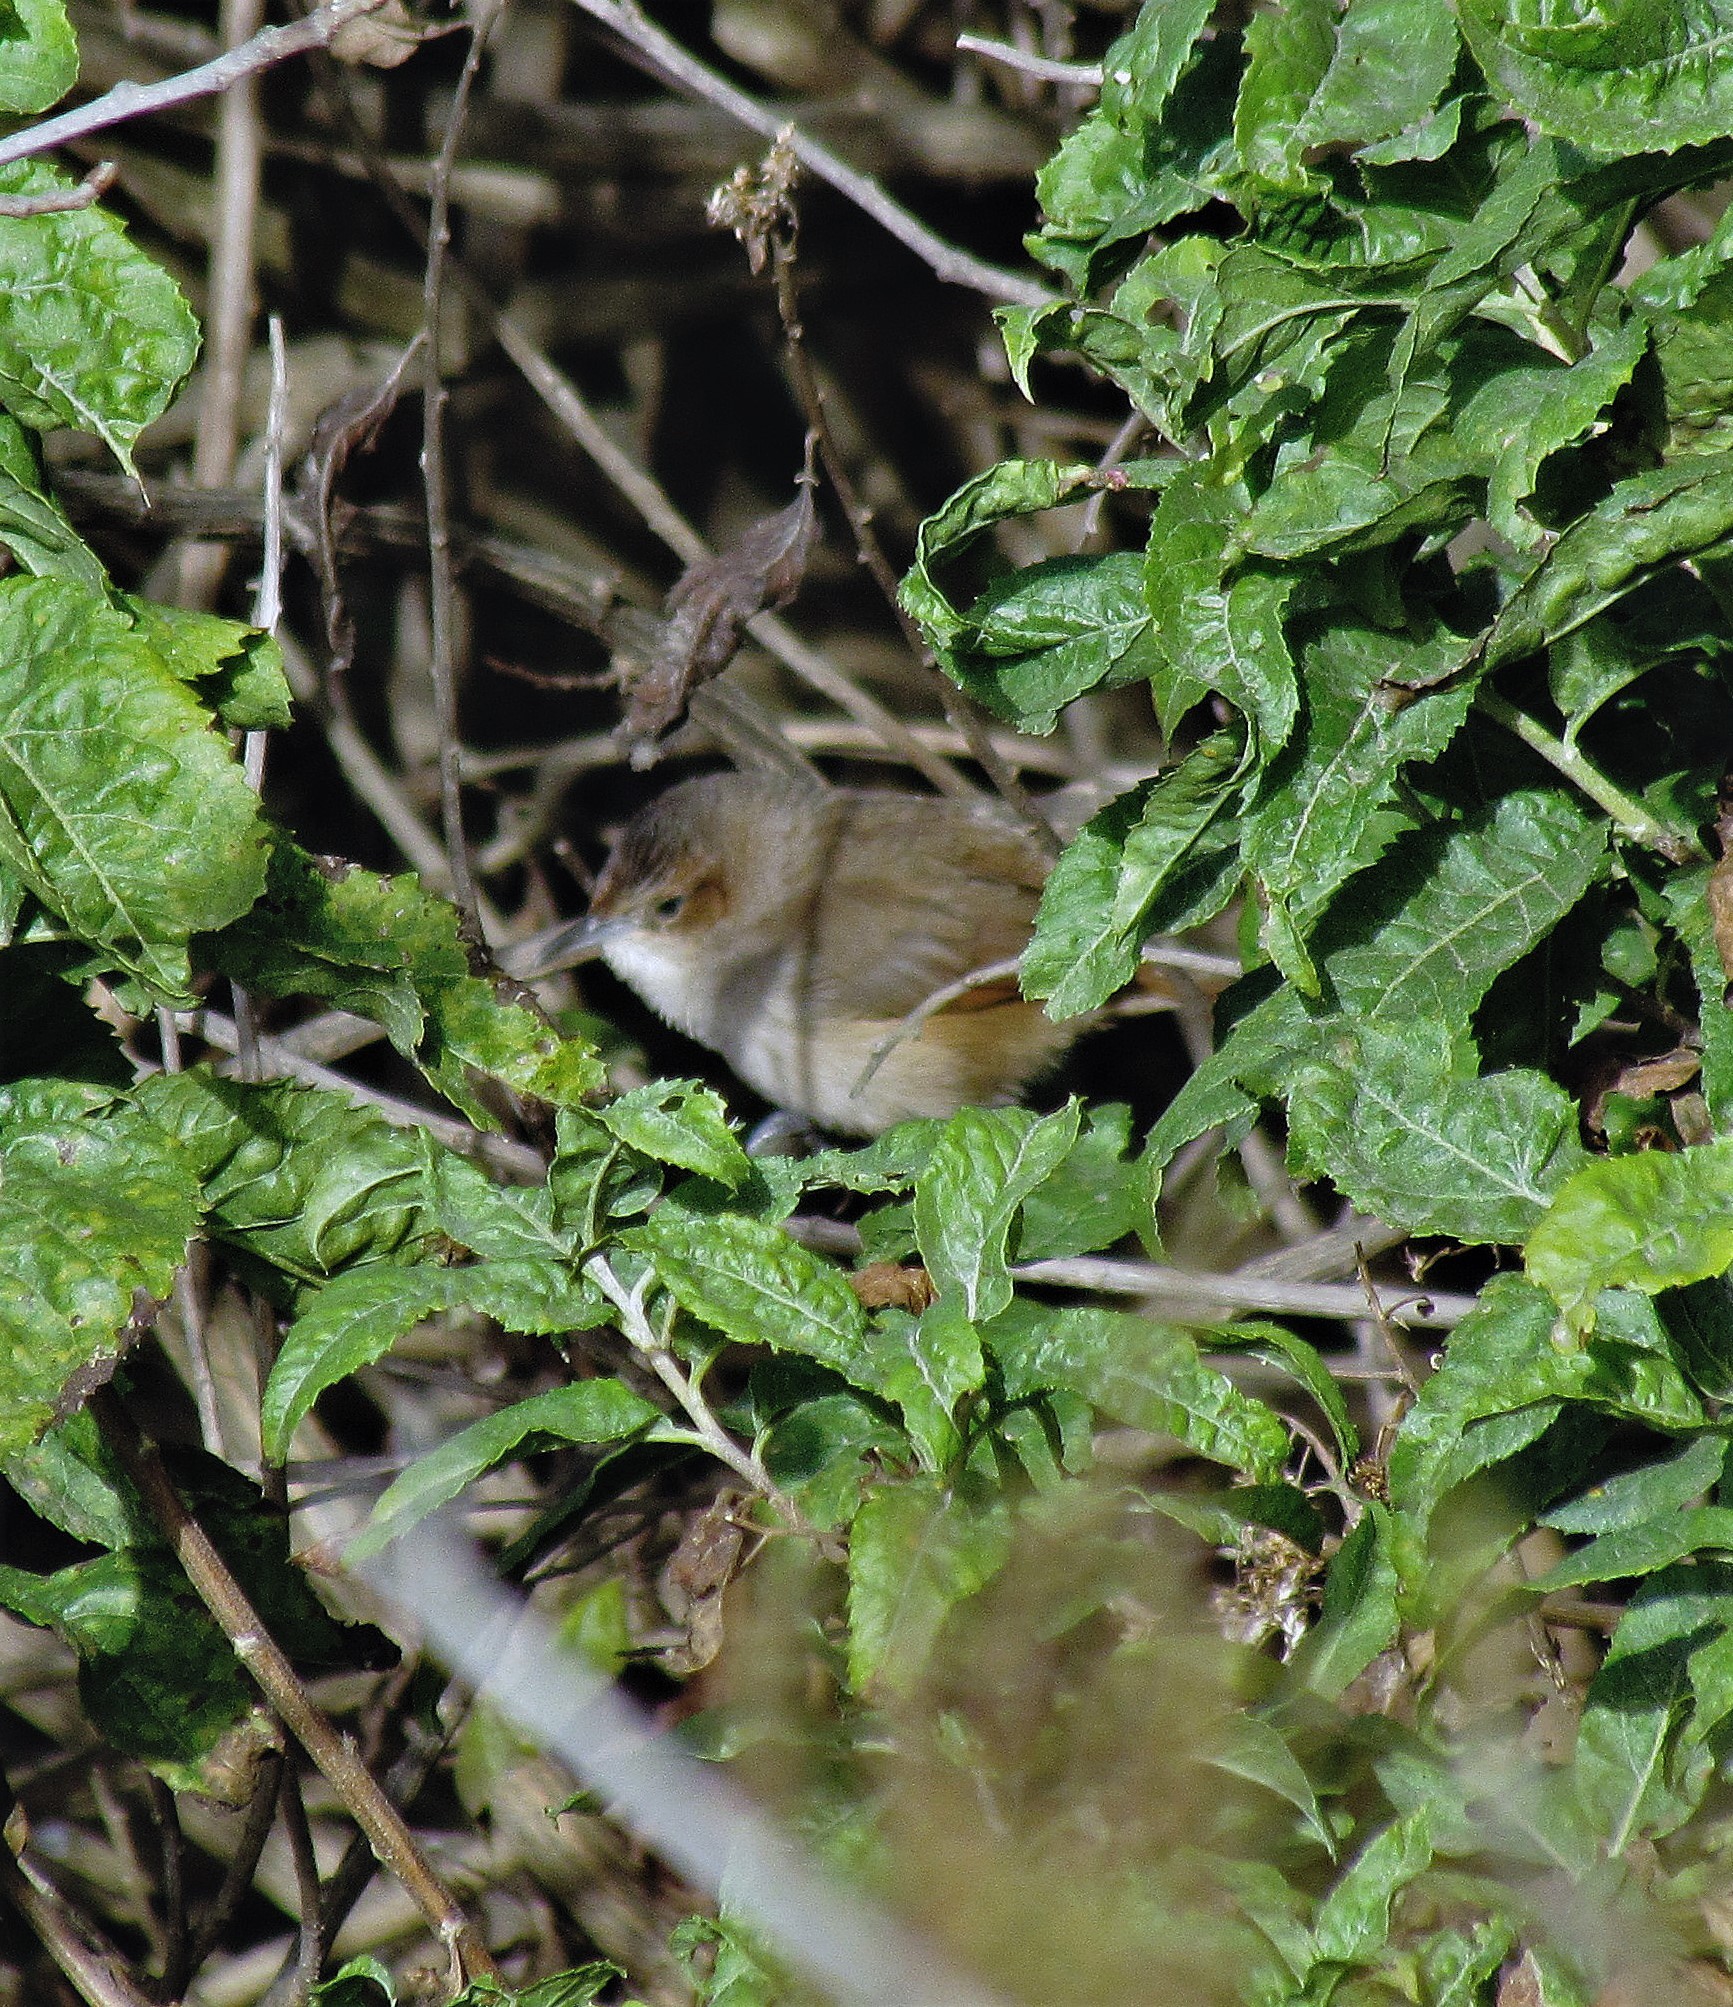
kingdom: Animalia
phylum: Chordata
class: Aves
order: Passeriformes
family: Furnariidae
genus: Phacellodomus
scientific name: Phacellodomus striaticeps
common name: Streak-fronted thornbird
